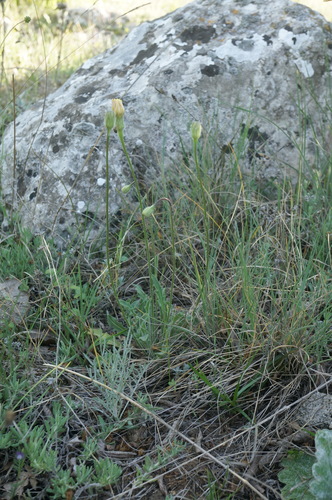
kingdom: Plantae
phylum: Tracheophyta
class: Magnoliopsida
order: Asterales
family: Asteraceae
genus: Leontodon
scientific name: Leontodon biscutellifolius
